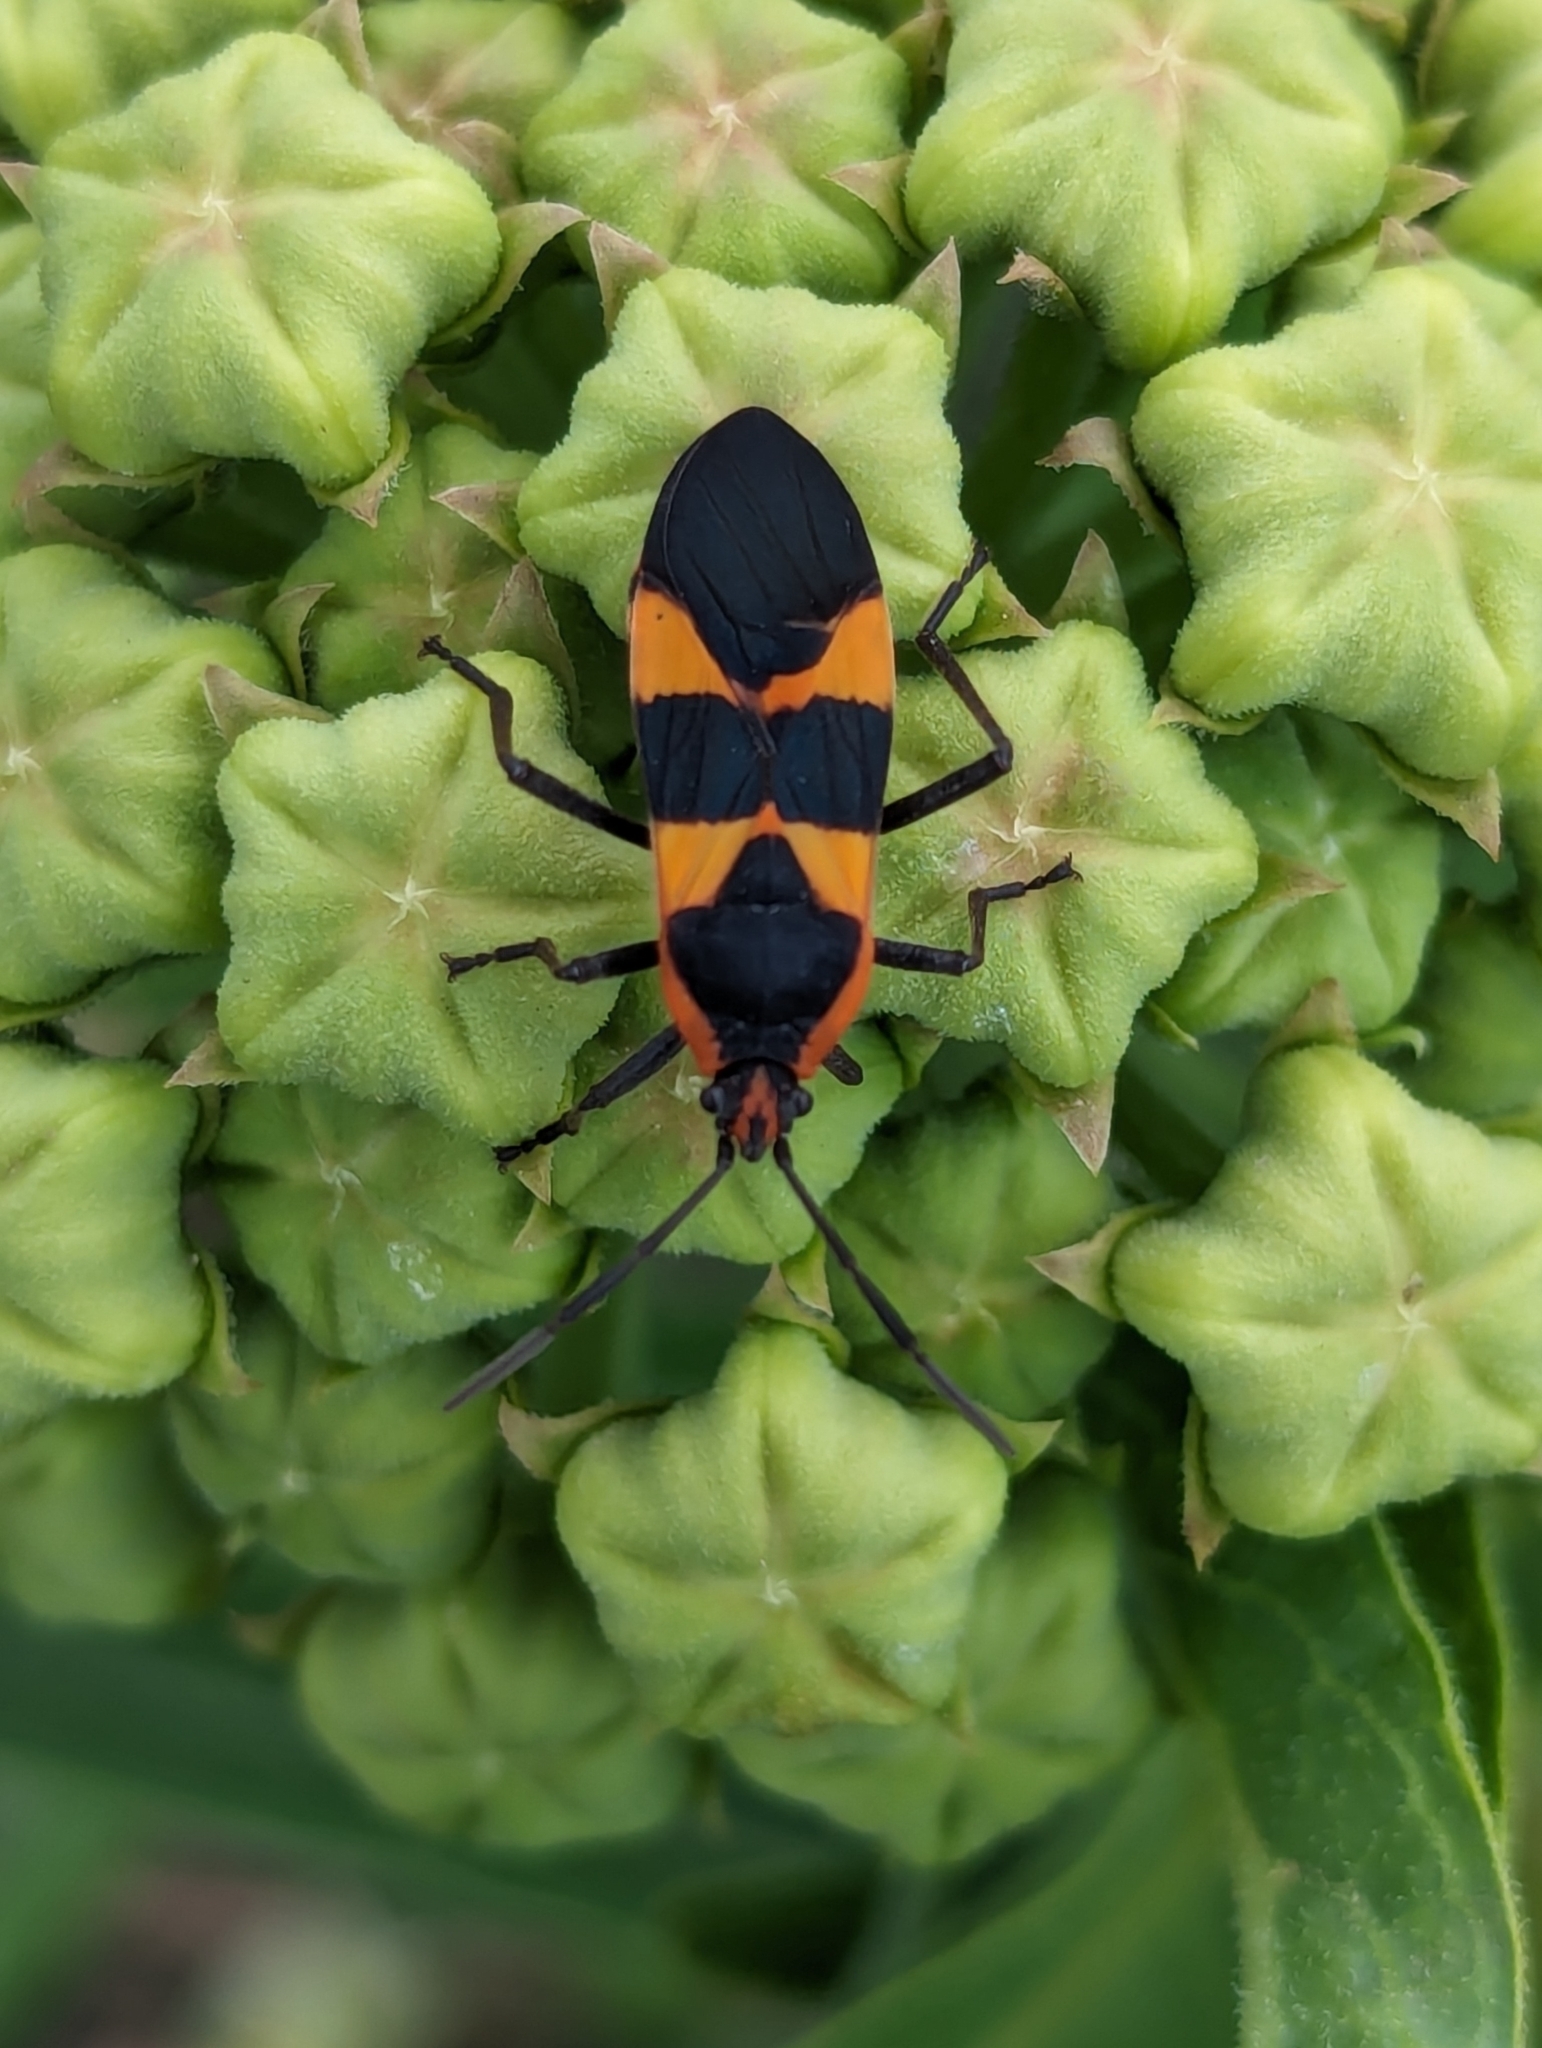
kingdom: Animalia
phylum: Arthropoda
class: Insecta
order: Hemiptera
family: Lygaeidae
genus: Oncopeltus
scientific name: Oncopeltus fasciatus
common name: Large milkweed bug
